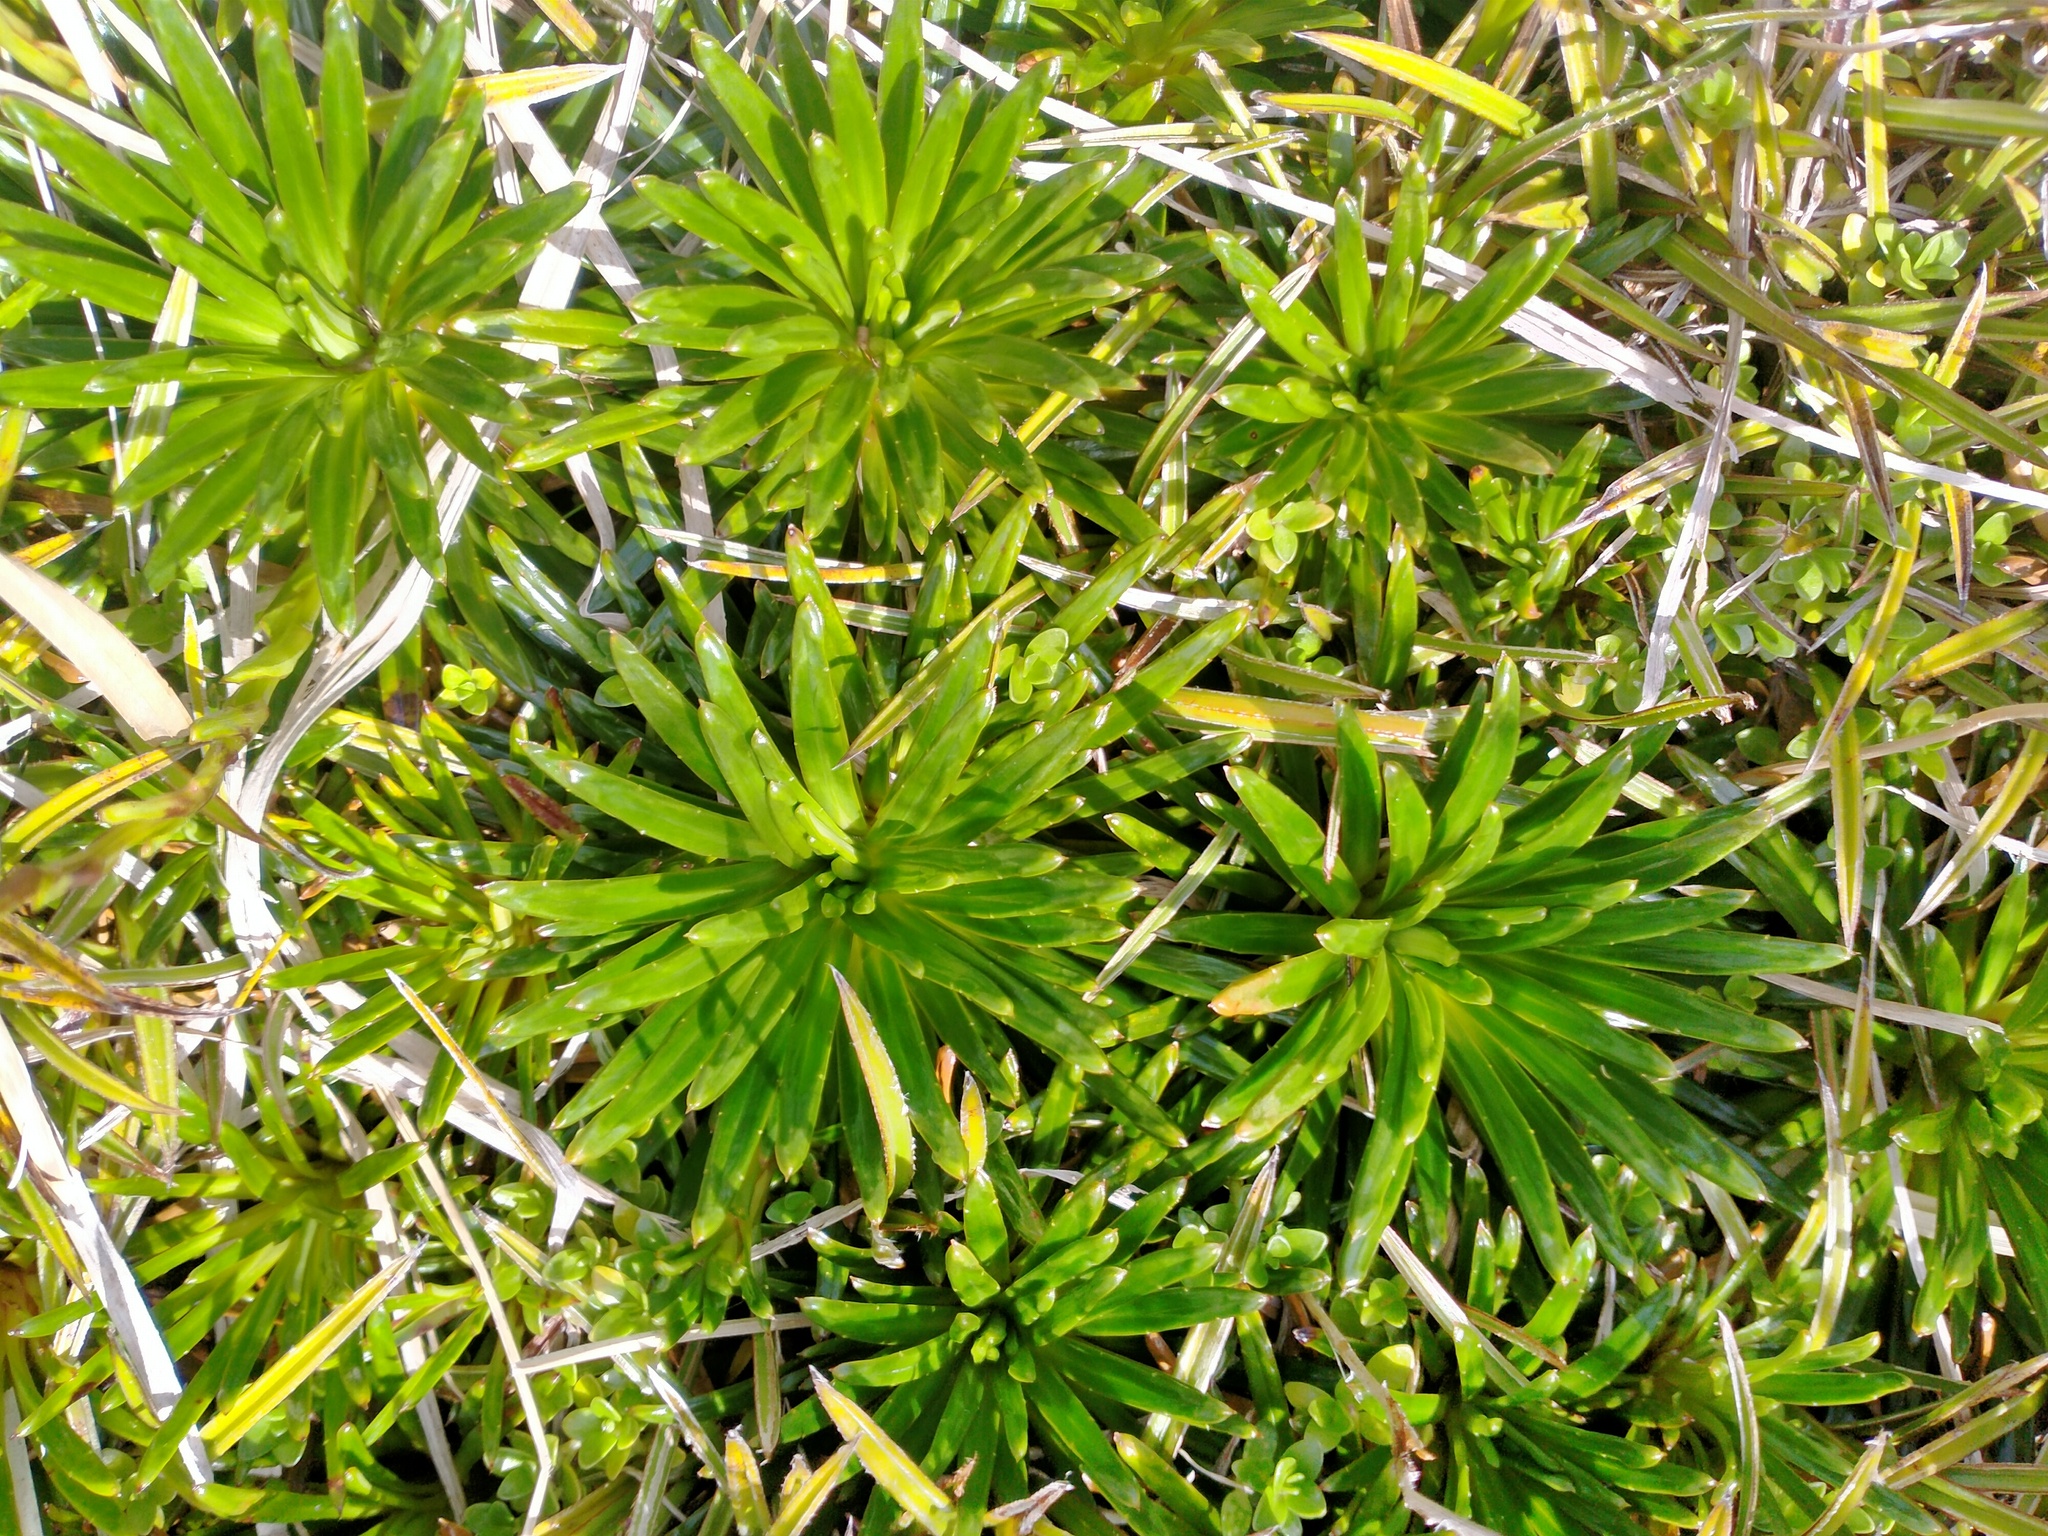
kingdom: Plantae
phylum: Tracheophyta
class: Magnoliopsida
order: Asterales
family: Asteraceae
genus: Damnamenia
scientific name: Damnamenia vernicosa
